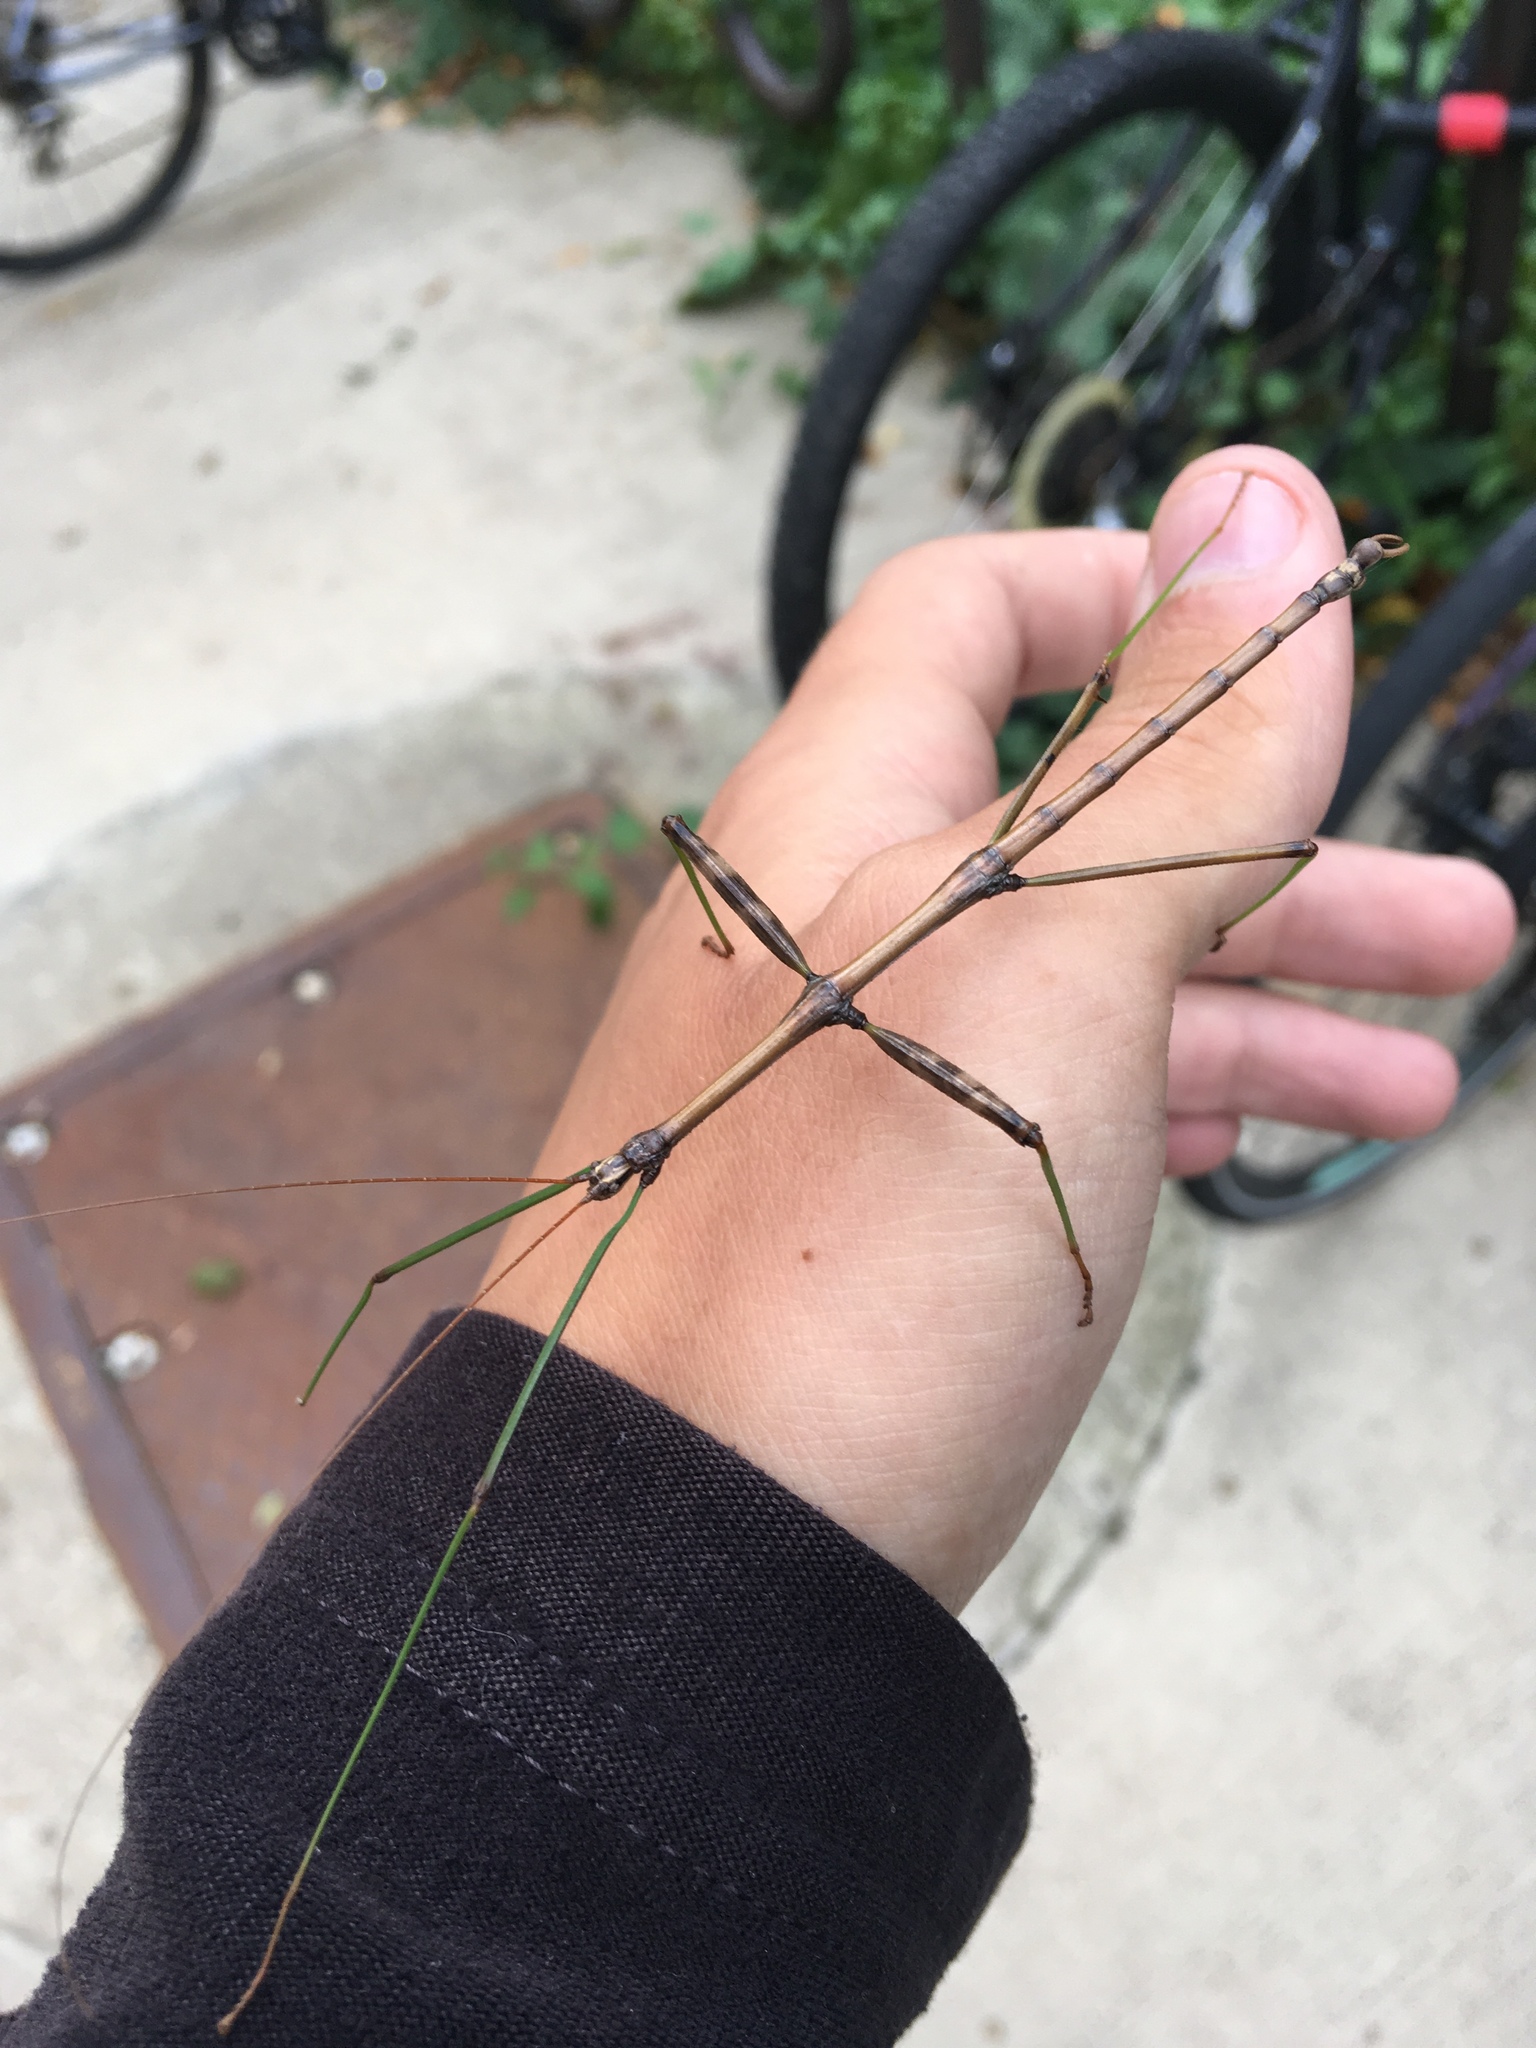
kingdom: Animalia
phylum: Arthropoda
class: Insecta
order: Phasmida
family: Diapheromeridae
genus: Diapheromera
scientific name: Diapheromera femorata
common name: Common american walkingstick
